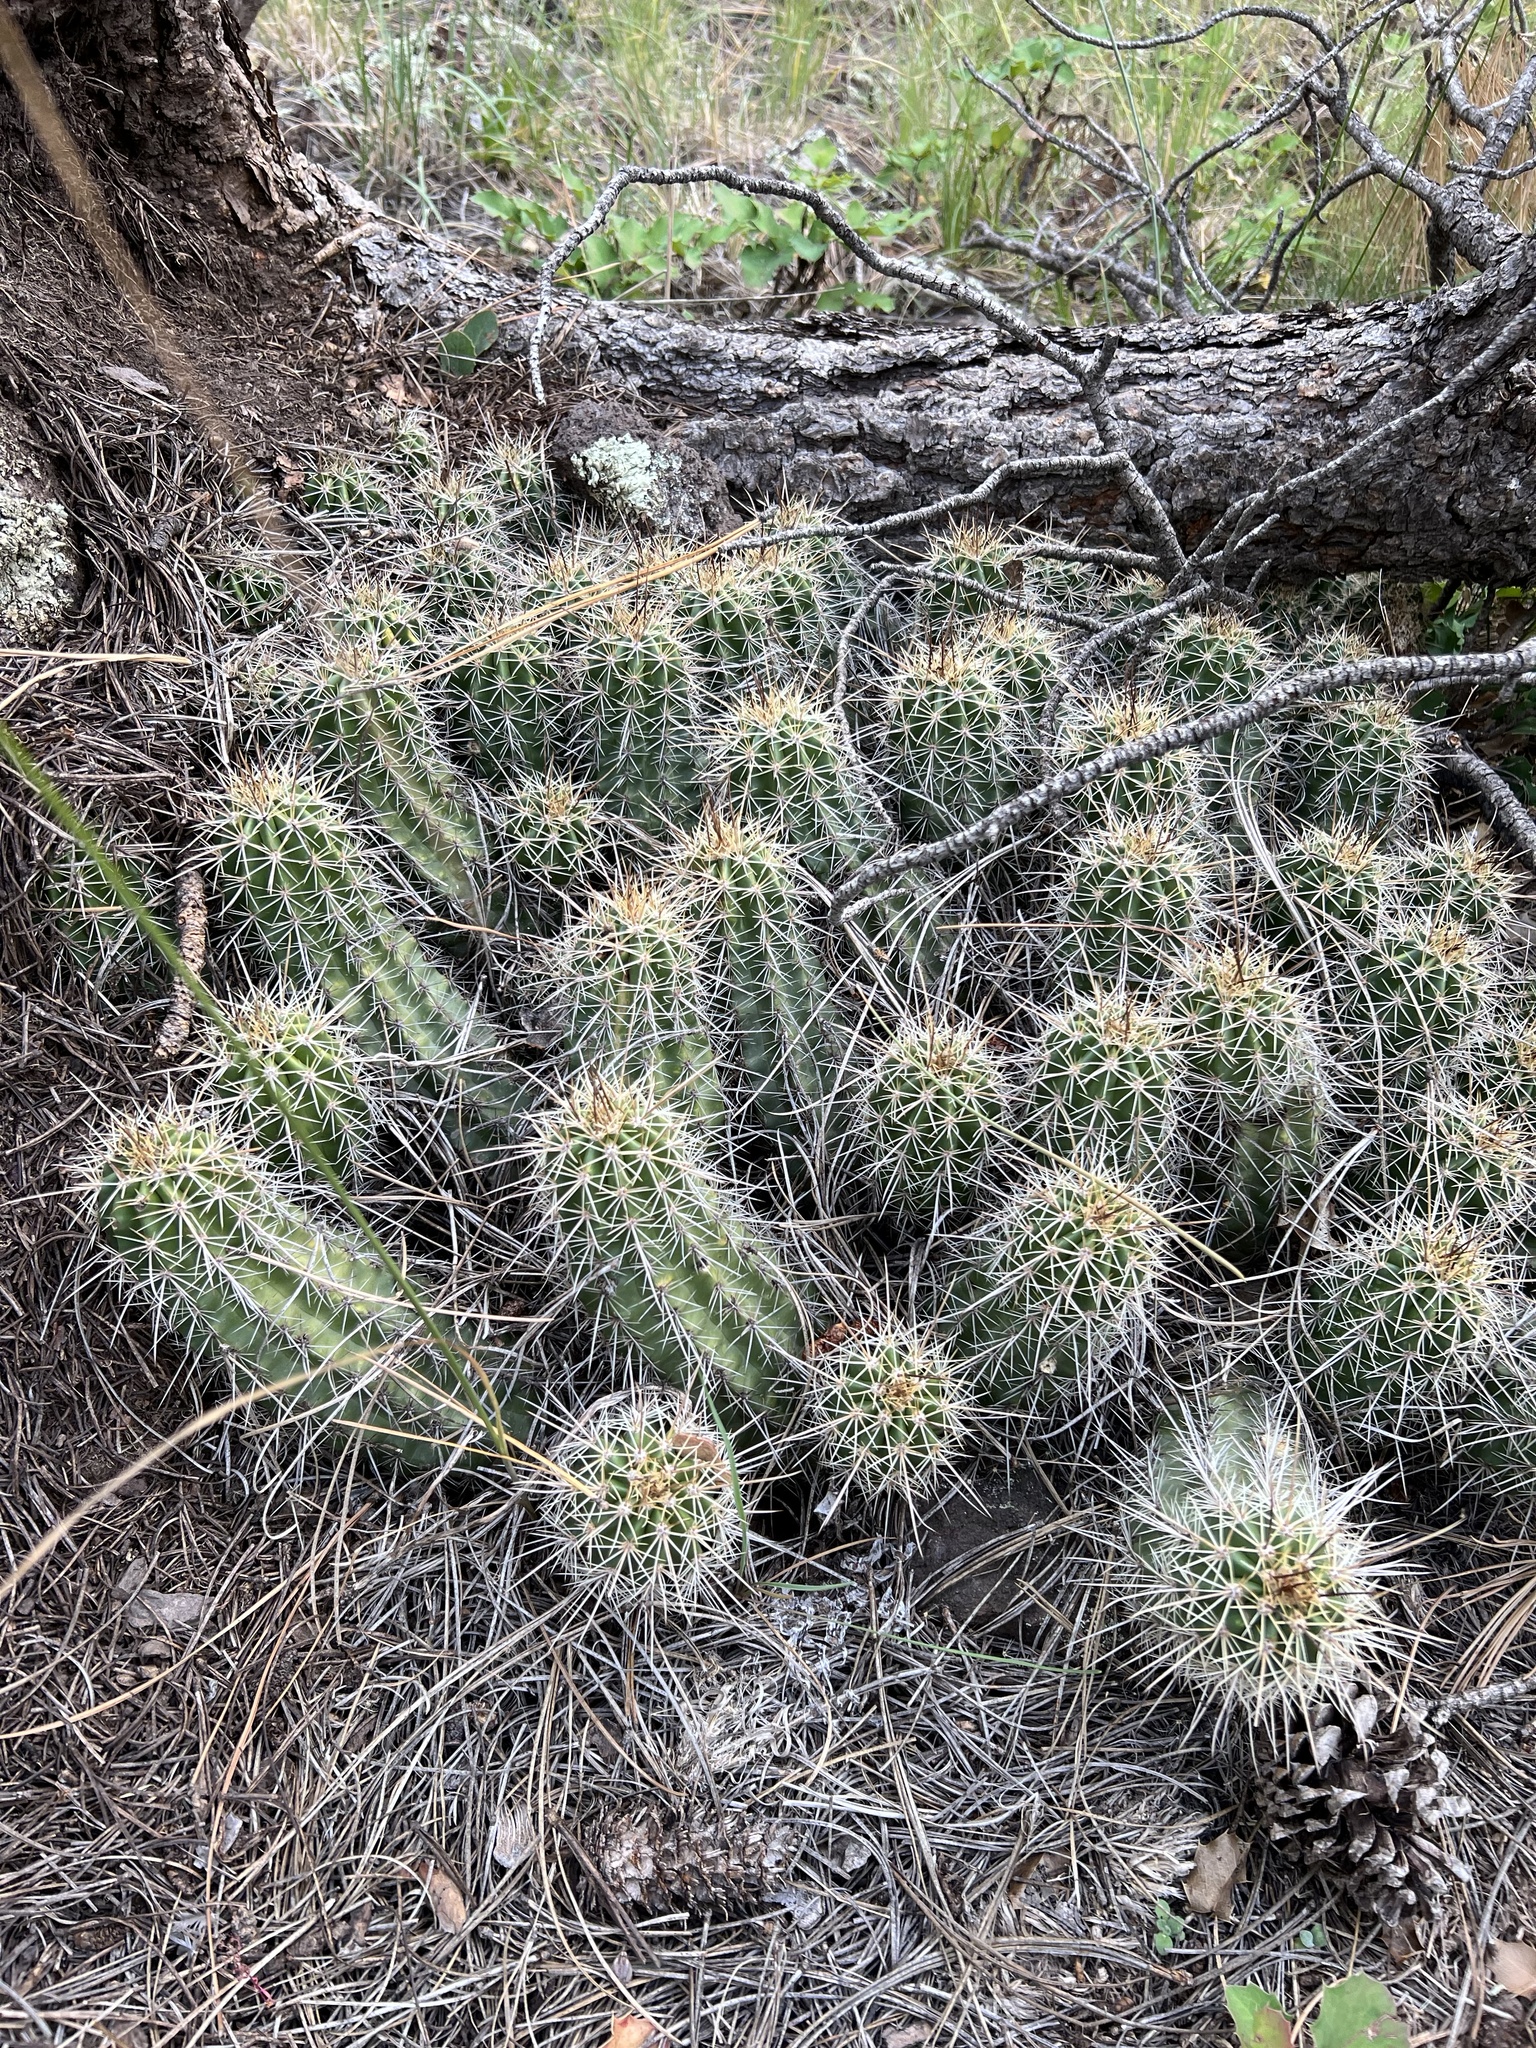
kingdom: Plantae
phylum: Tracheophyta
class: Magnoliopsida
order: Caryophyllales
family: Cactaceae
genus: Echinocereus
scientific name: Echinocereus bakeri
